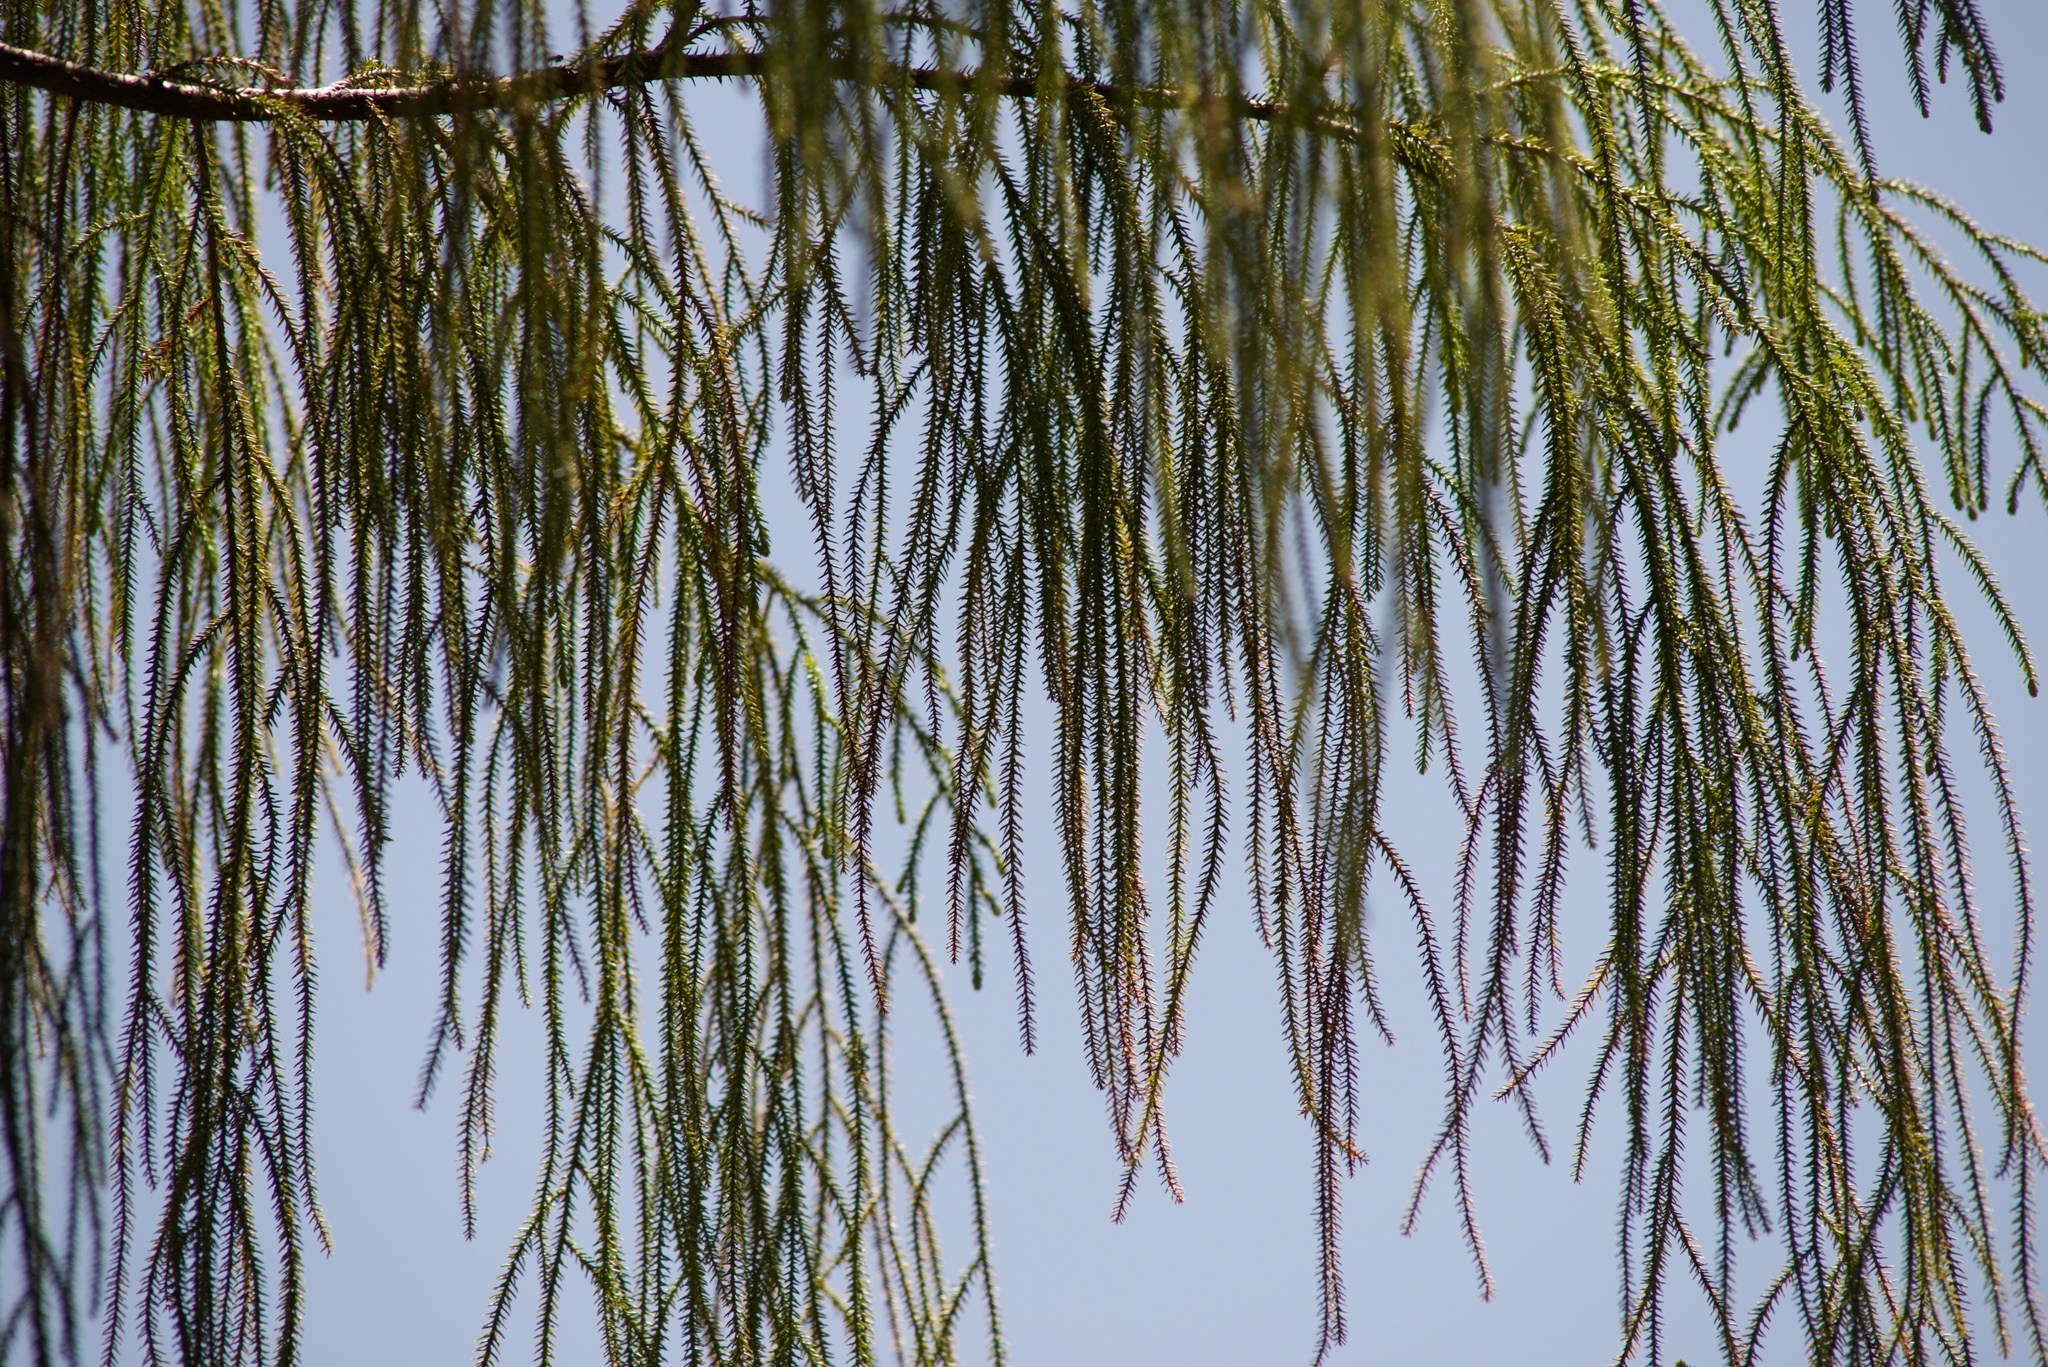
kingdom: Plantae
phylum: Tracheophyta
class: Pinopsida
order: Pinales
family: Podocarpaceae
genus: Dacrydium
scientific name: Dacrydium cupressinum
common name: Red pine
